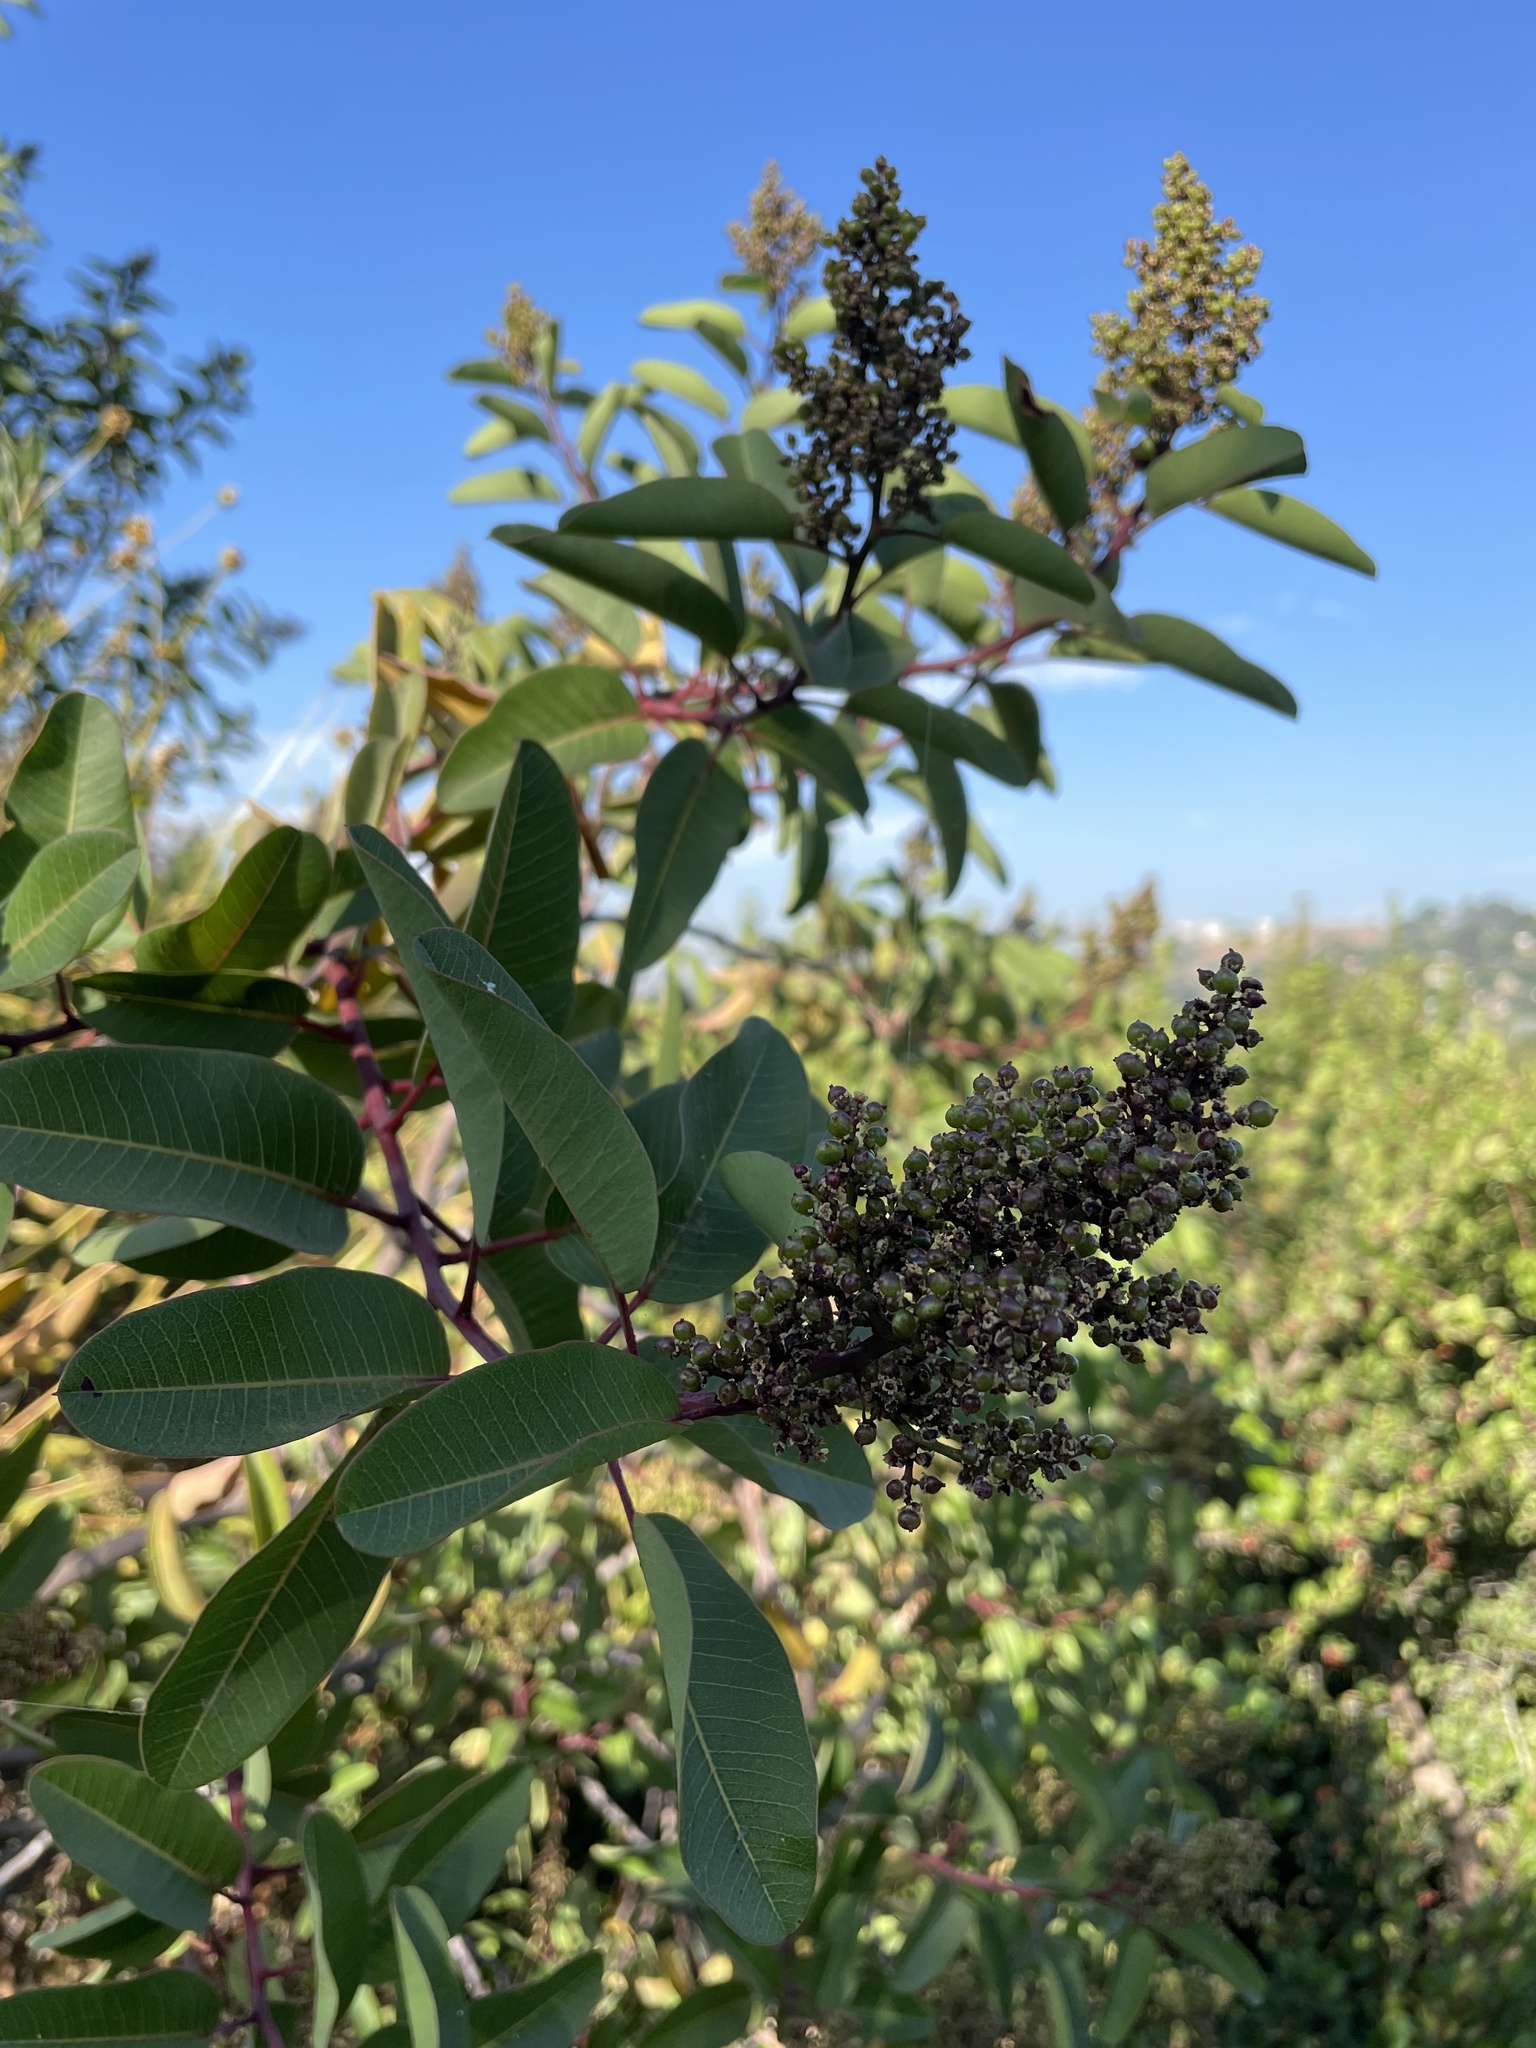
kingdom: Plantae
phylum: Tracheophyta
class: Magnoliopsida
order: Sapindales
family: Anacardiaceae
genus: Malosma
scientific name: Malosma laurina
